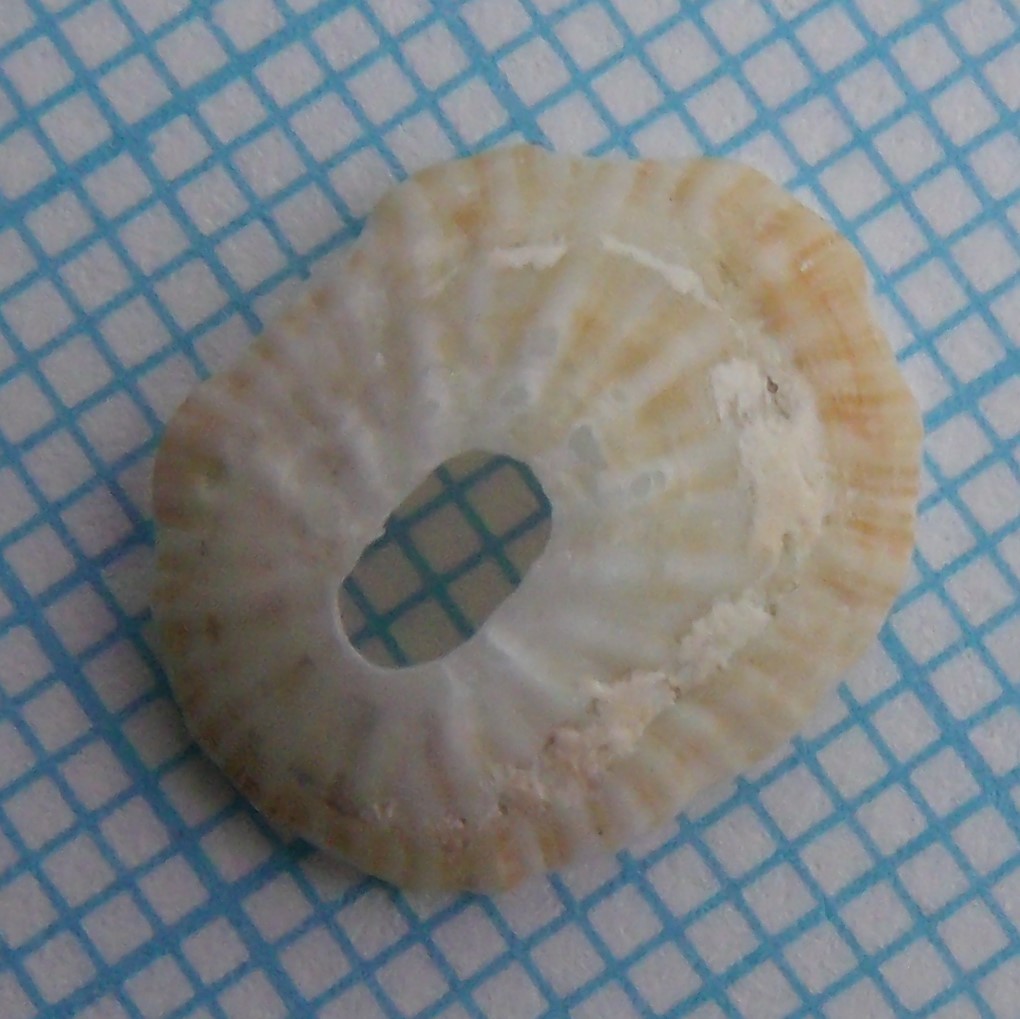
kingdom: Animalia
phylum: Mollusca
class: Gastropoda
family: Lottiidae
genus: Radiacmea
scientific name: Radiacmea inconspicua
